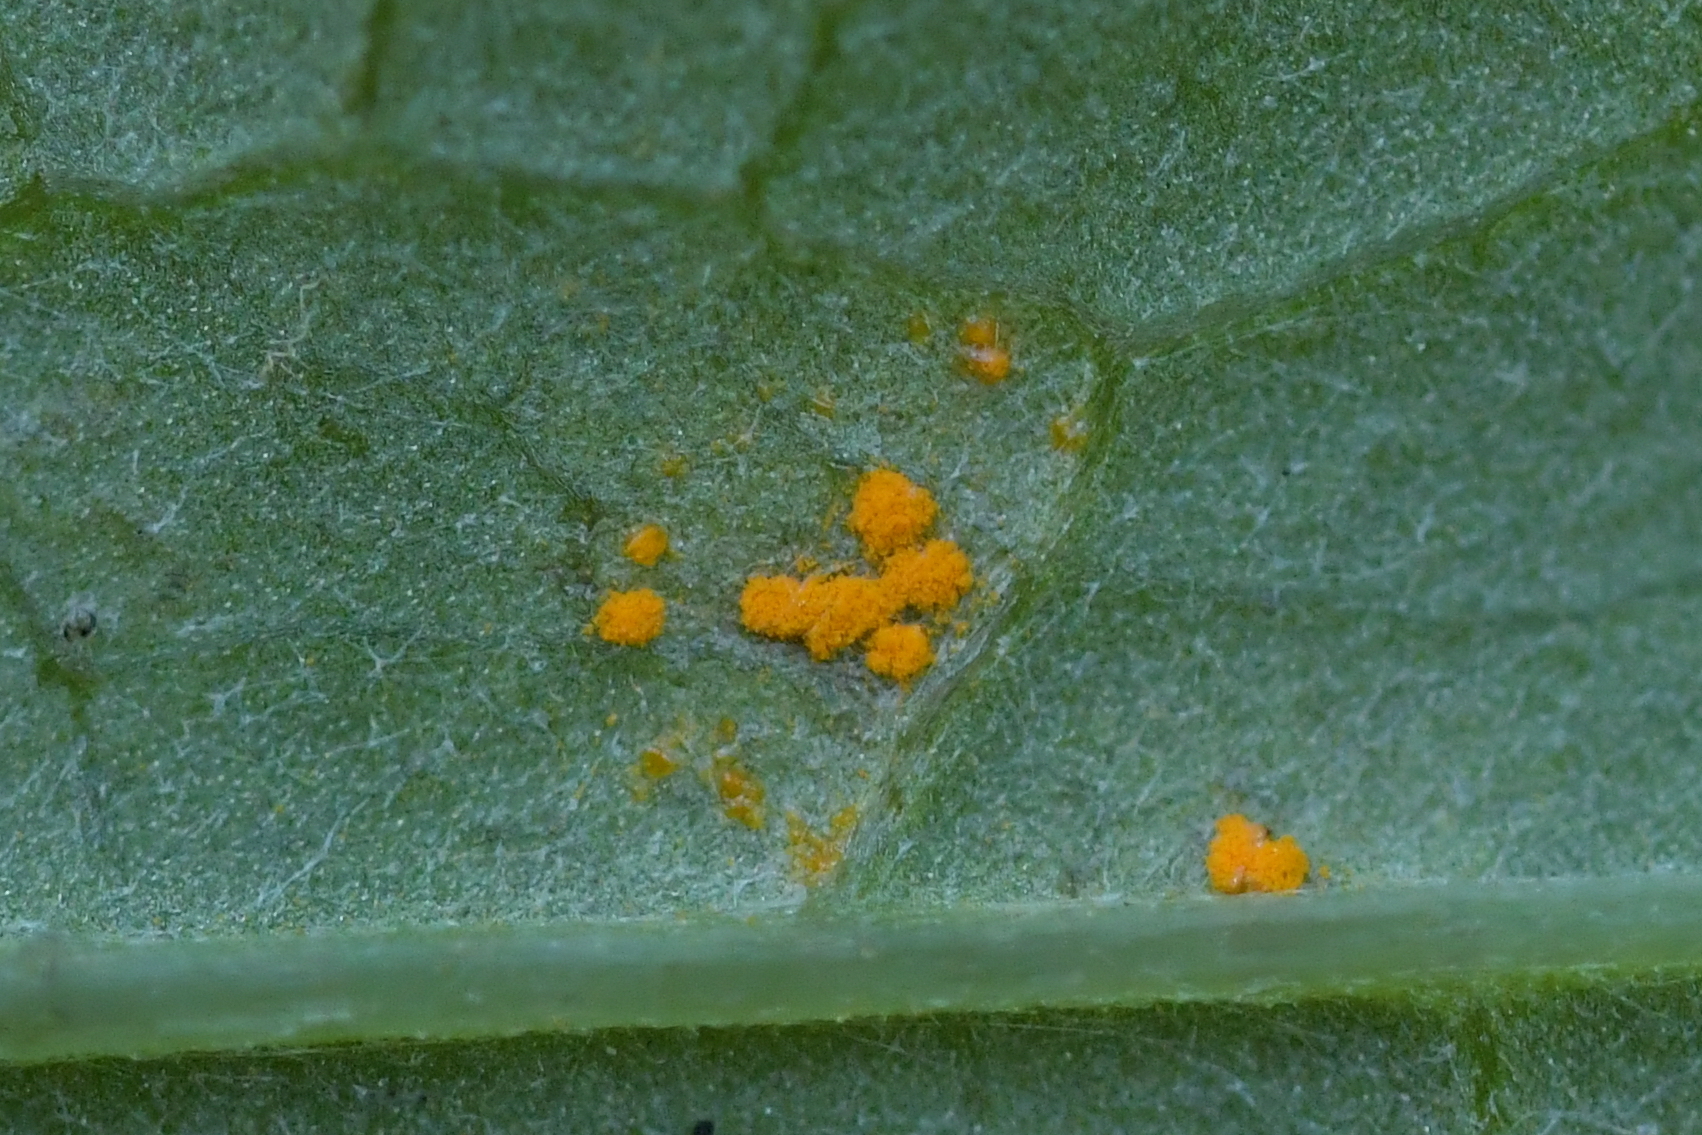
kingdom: Fungi
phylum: Basidiomycota
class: Pucciniomycetes
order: Pucciniales
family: Coleosporiaceae
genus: Coleosporium
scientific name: Coleosporium tussilaginis
